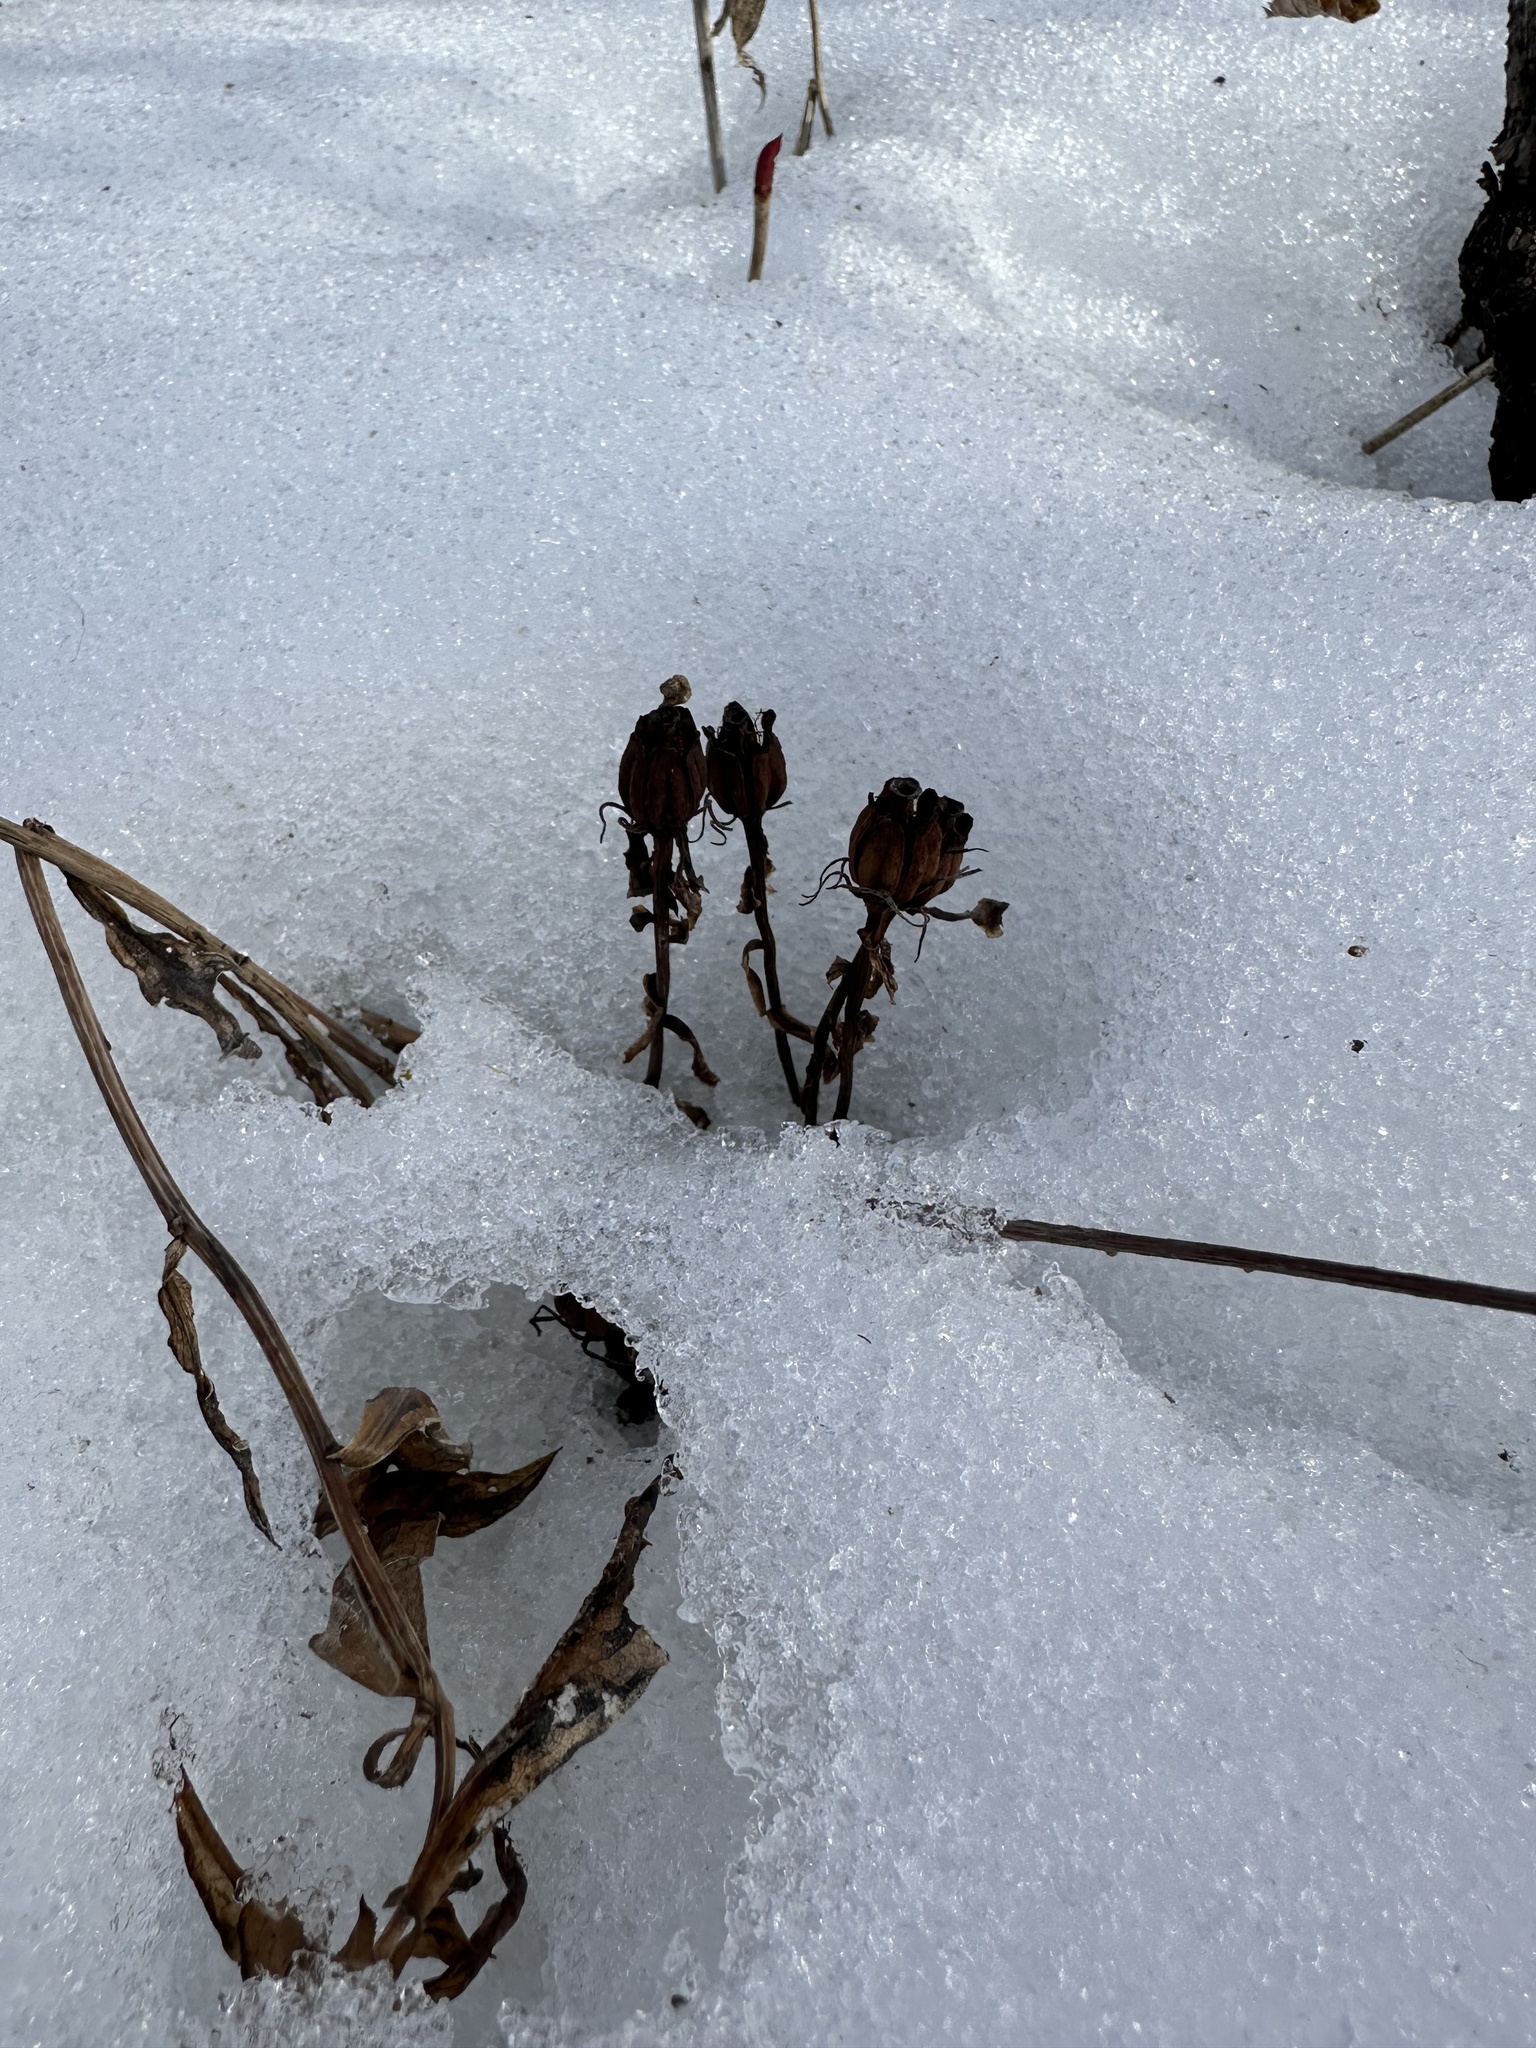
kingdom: Plantae
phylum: Tracheophyta
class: Magnoliopsida
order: Ericales
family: Ericaceae
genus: Monotropa
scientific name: Monotropa uniflora
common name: Convulsion root
